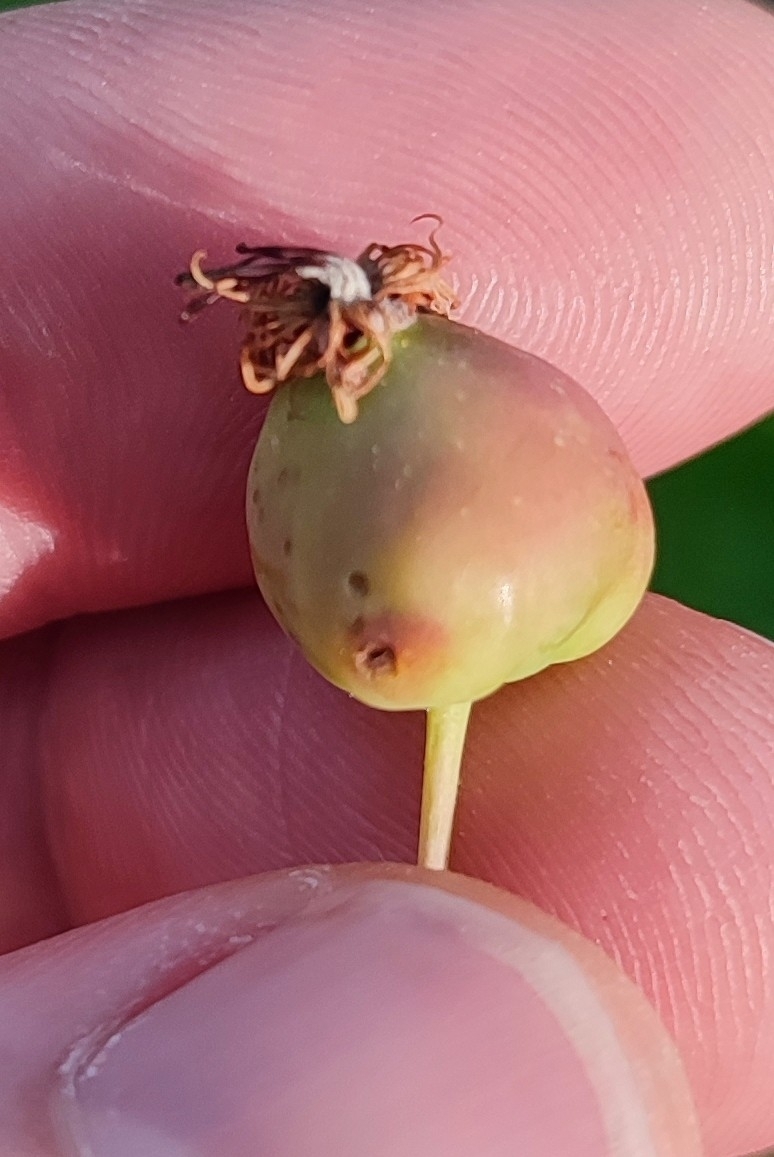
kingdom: Plantae
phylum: Tracheophyta
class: Magnoliopsida
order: Rosales
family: Rosaceae
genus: Malus
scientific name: Malus baccata
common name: Siberian crab
